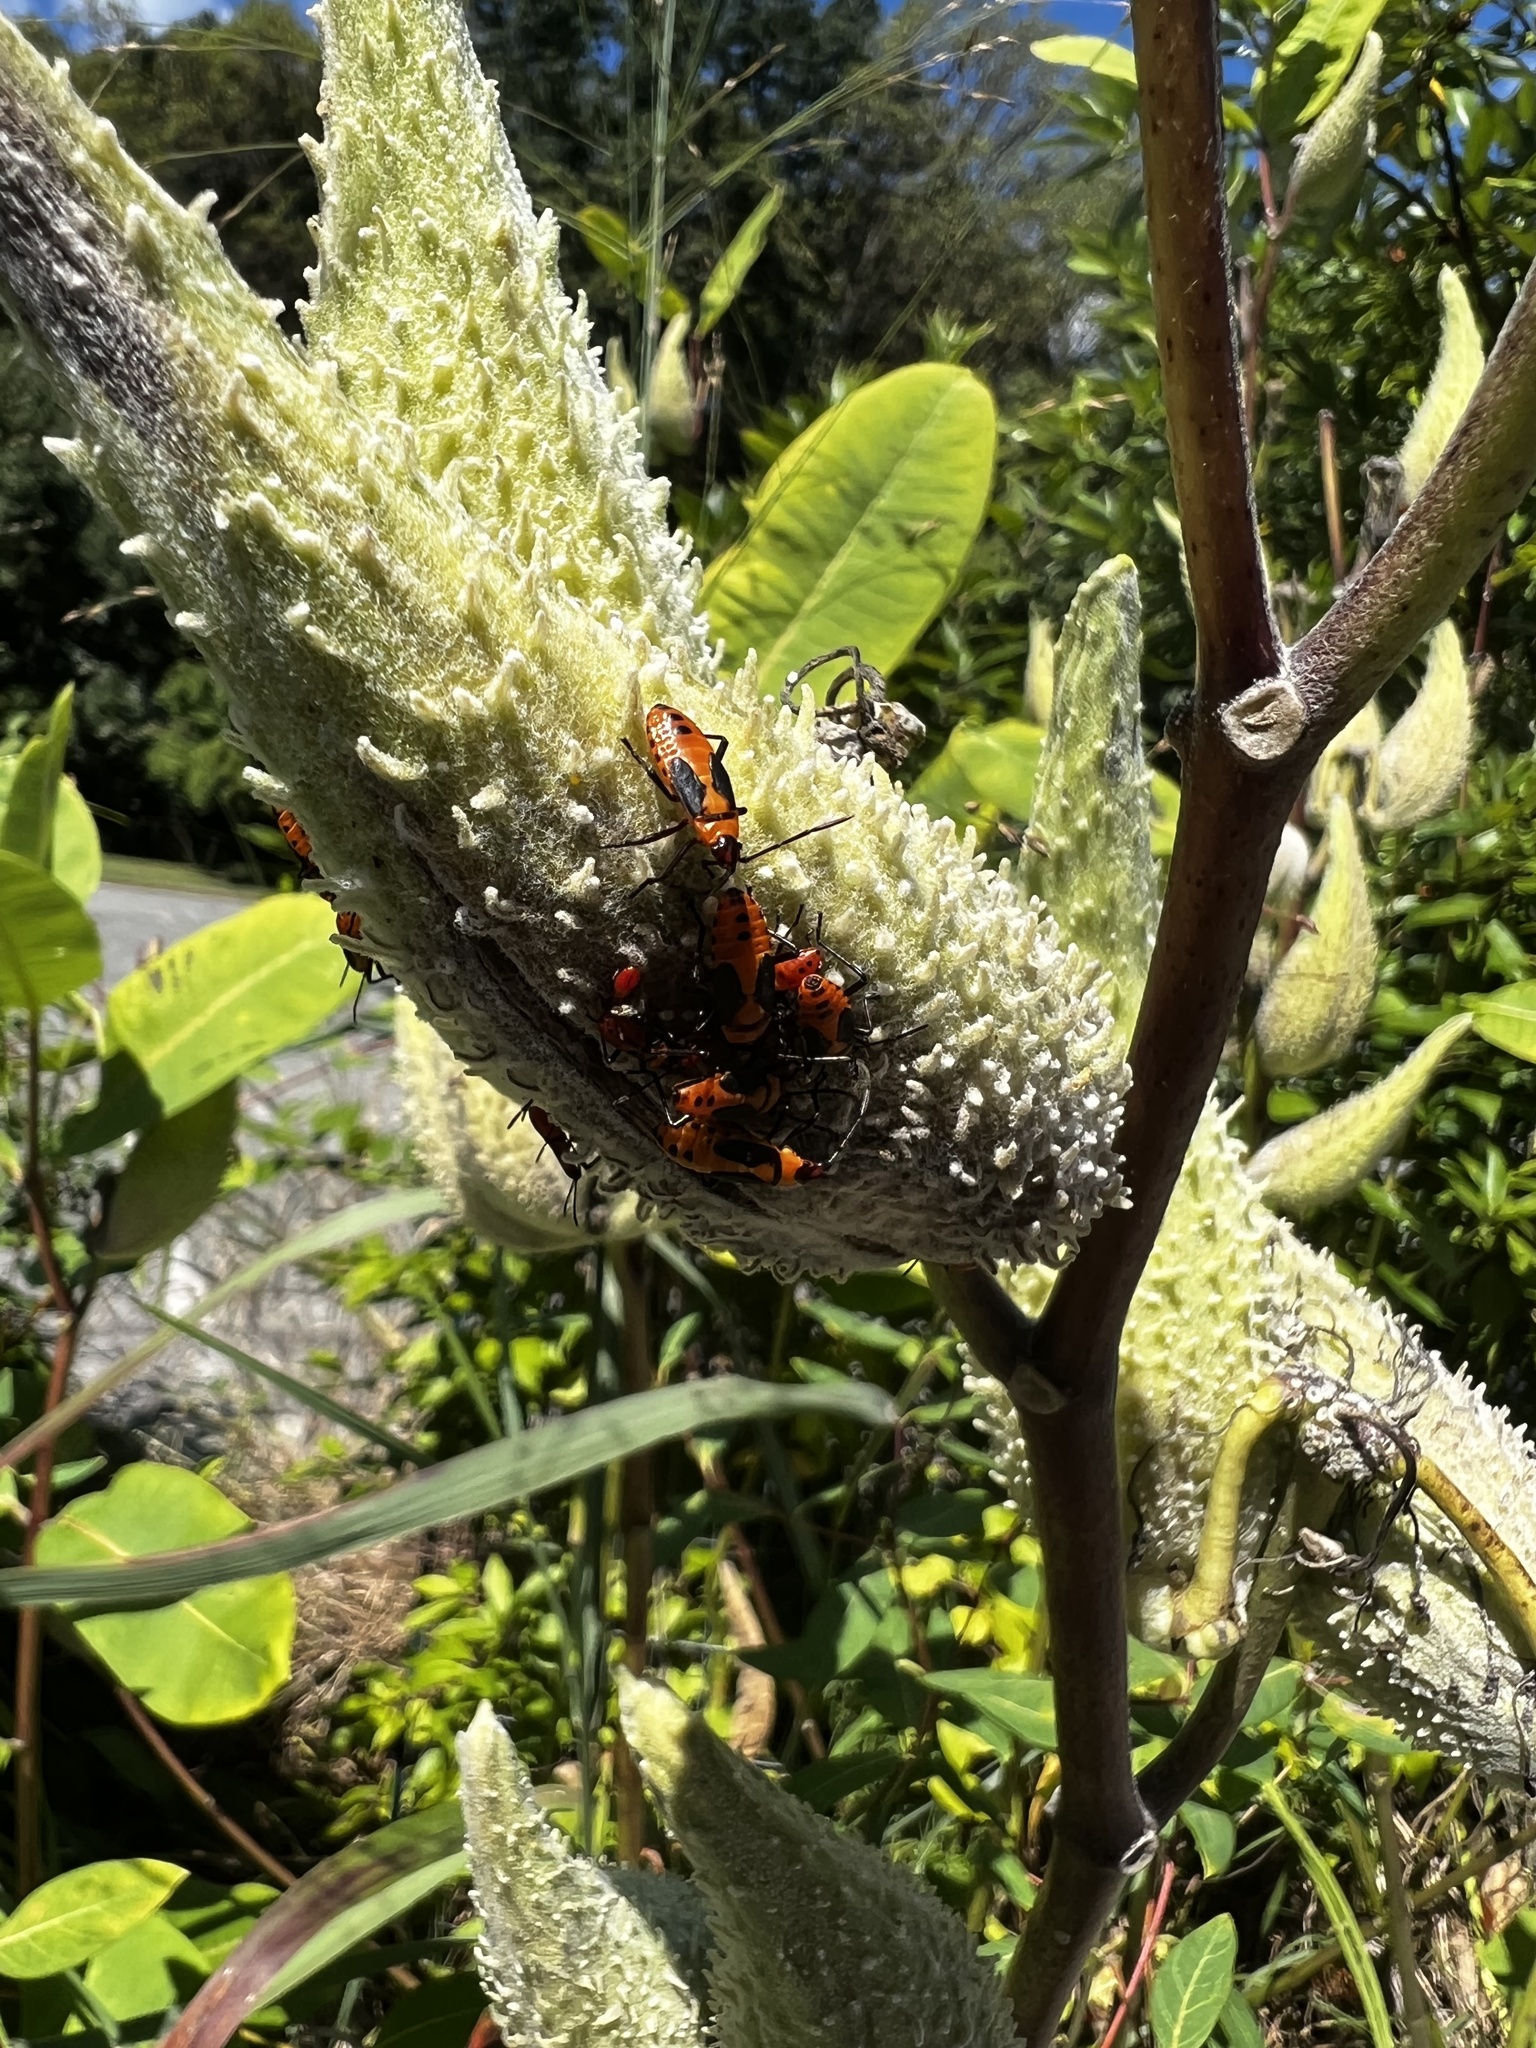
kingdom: Animalia
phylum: Arthropoda
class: Insecta
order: Hemiptera
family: Lygaeidae
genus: Oncopeltus
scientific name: Oncopeltus fasciatus
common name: Large milkweed bug
